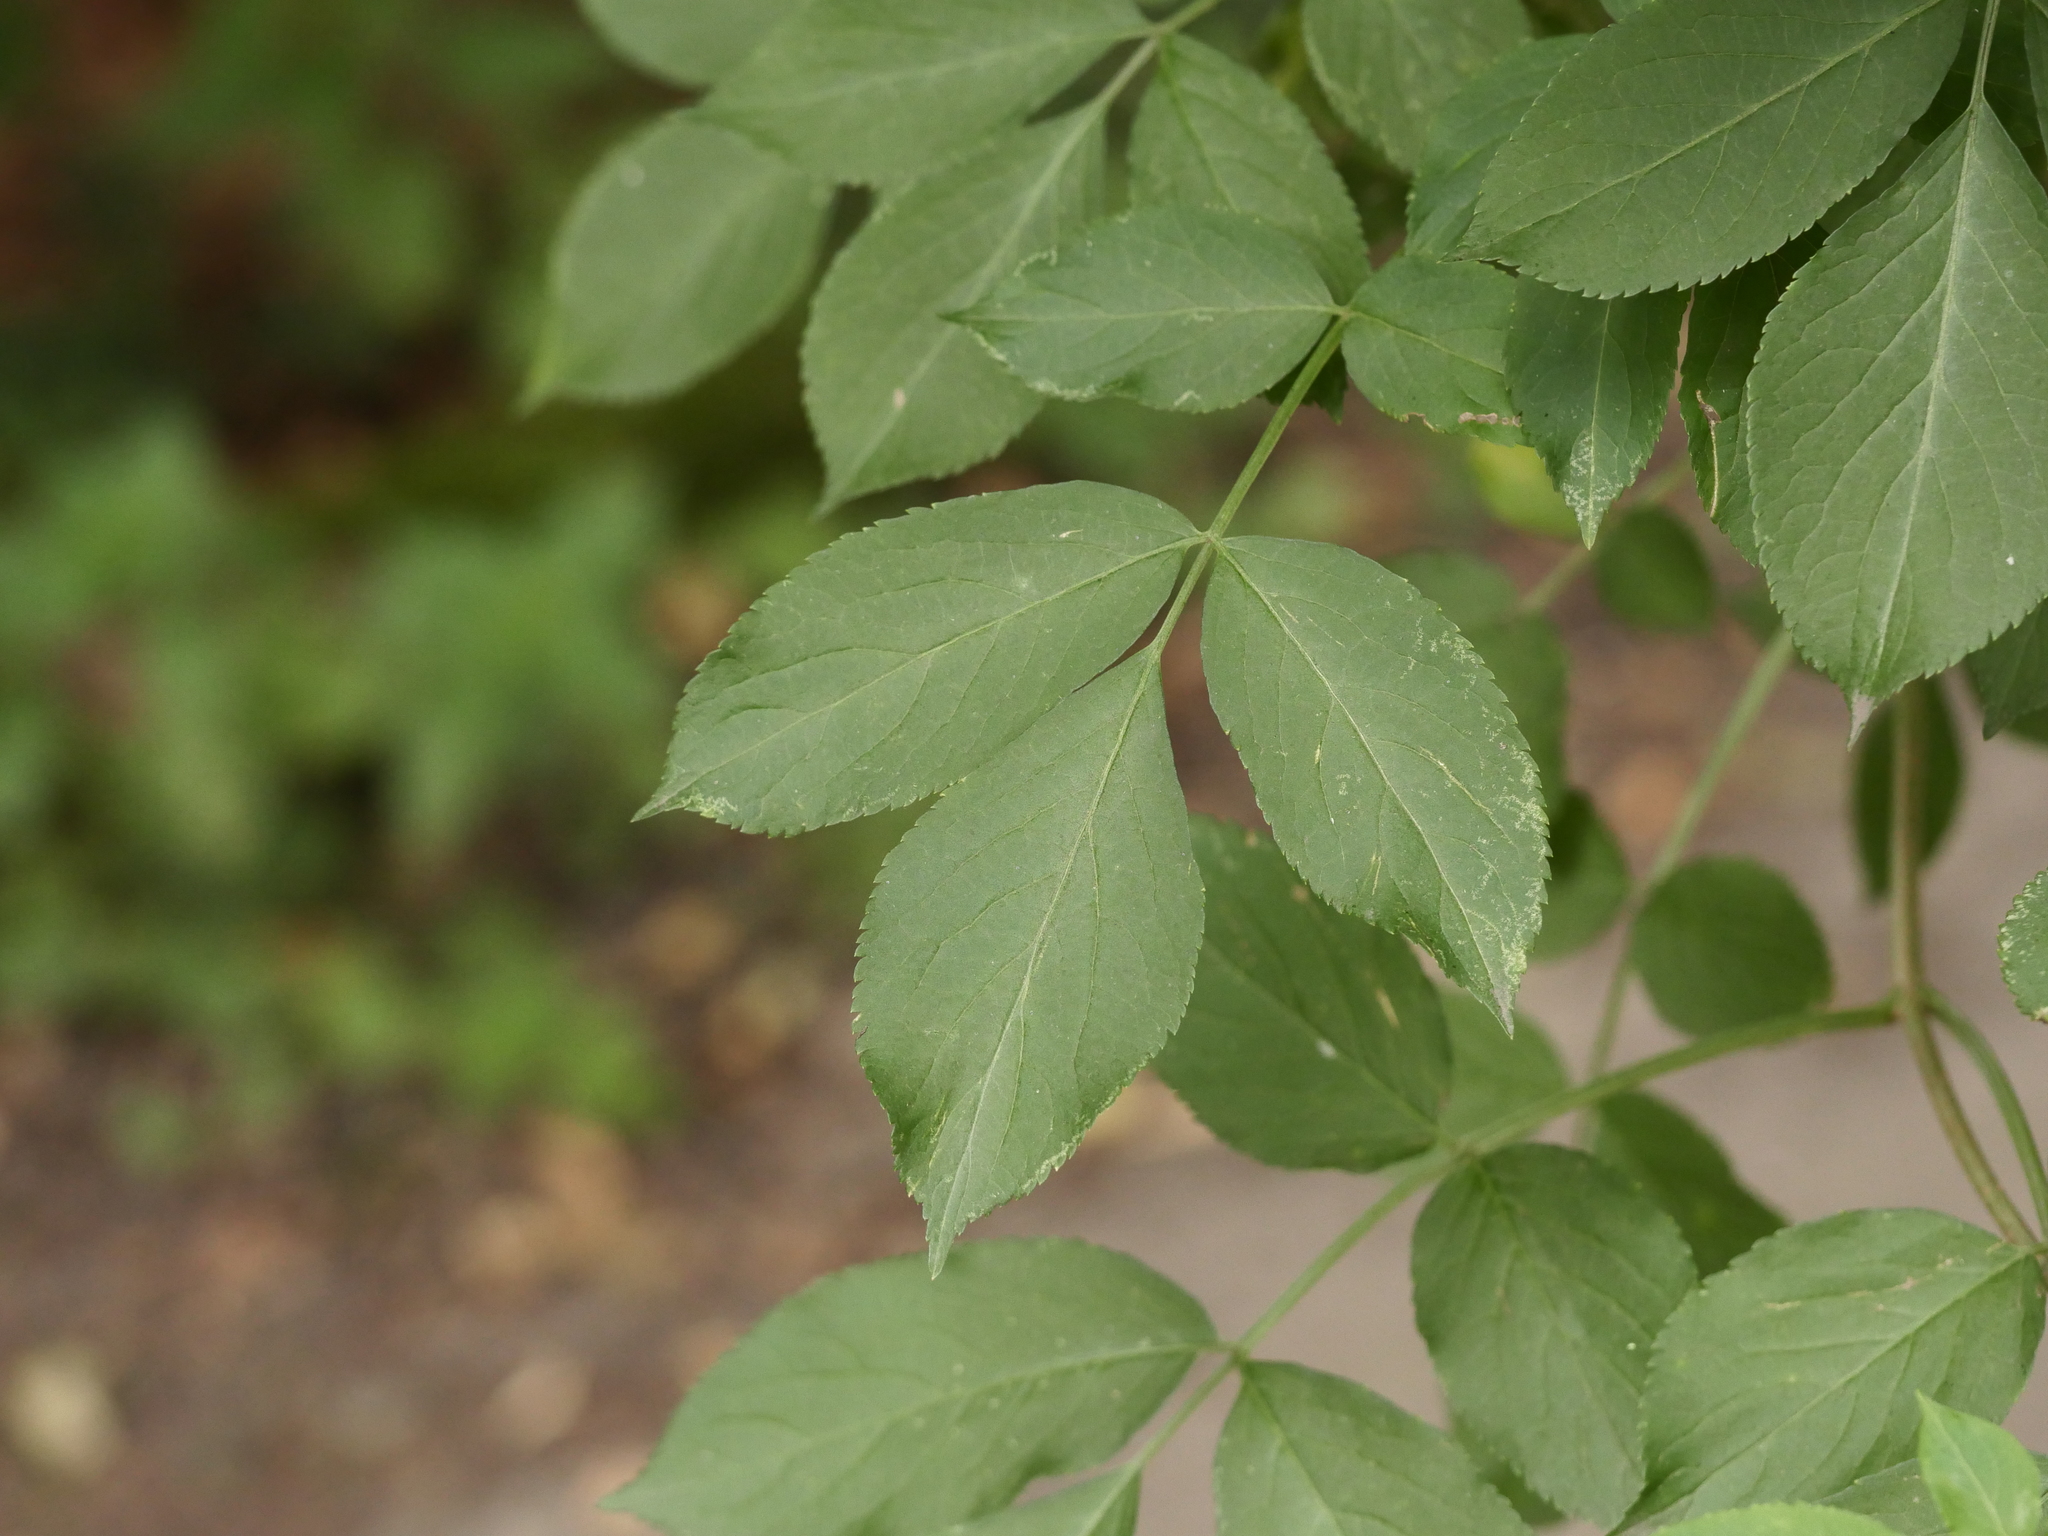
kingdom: Plantae
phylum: Tracheophyta
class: Magnoliopsida
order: Dipsacales
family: Viburnaceae
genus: Sambucus
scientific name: Sambucus nigra
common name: Elder
